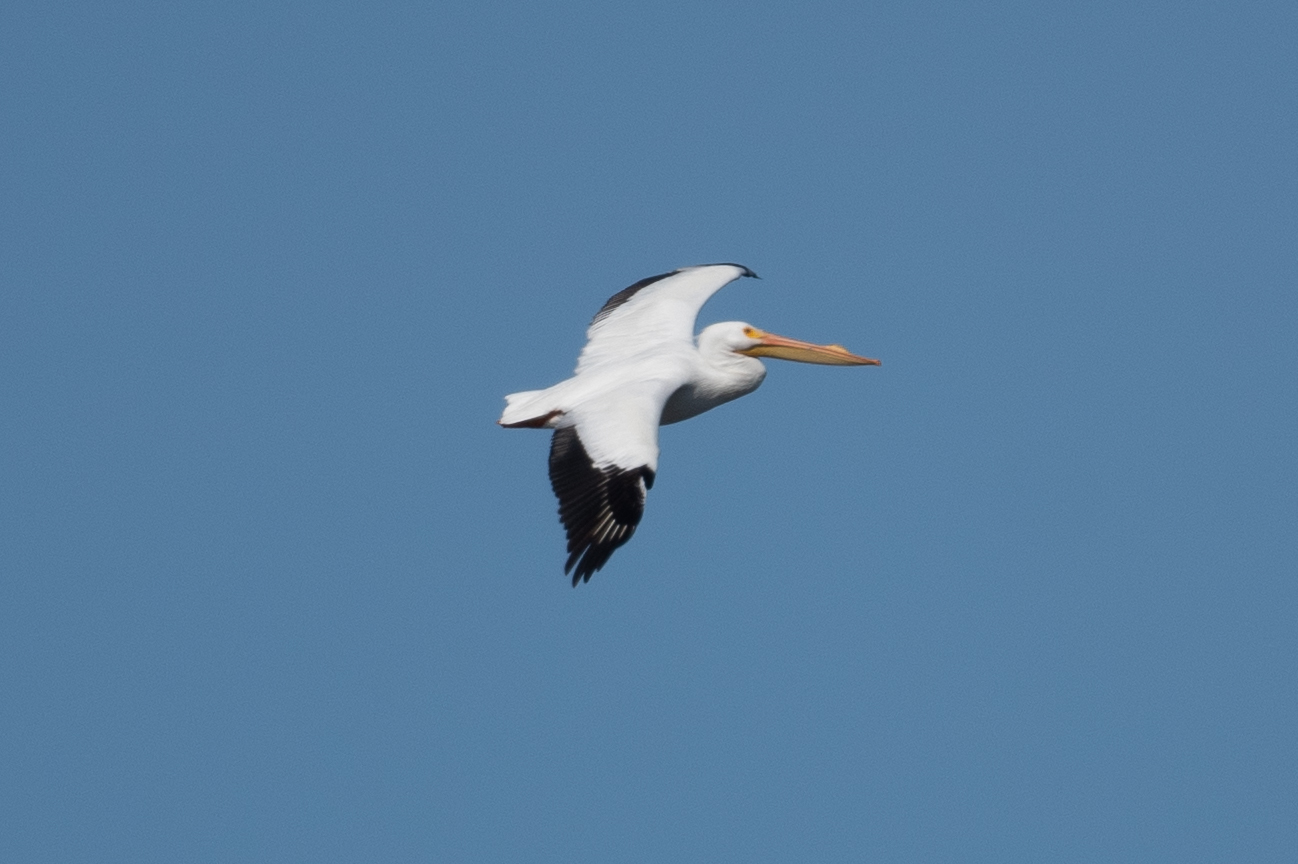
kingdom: Animalia
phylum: Chordata
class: Aves
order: Pelecaniformes
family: Pelecanidae
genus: Pelecanus
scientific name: Pelecanus erythrorhynchos
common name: American white pelican
